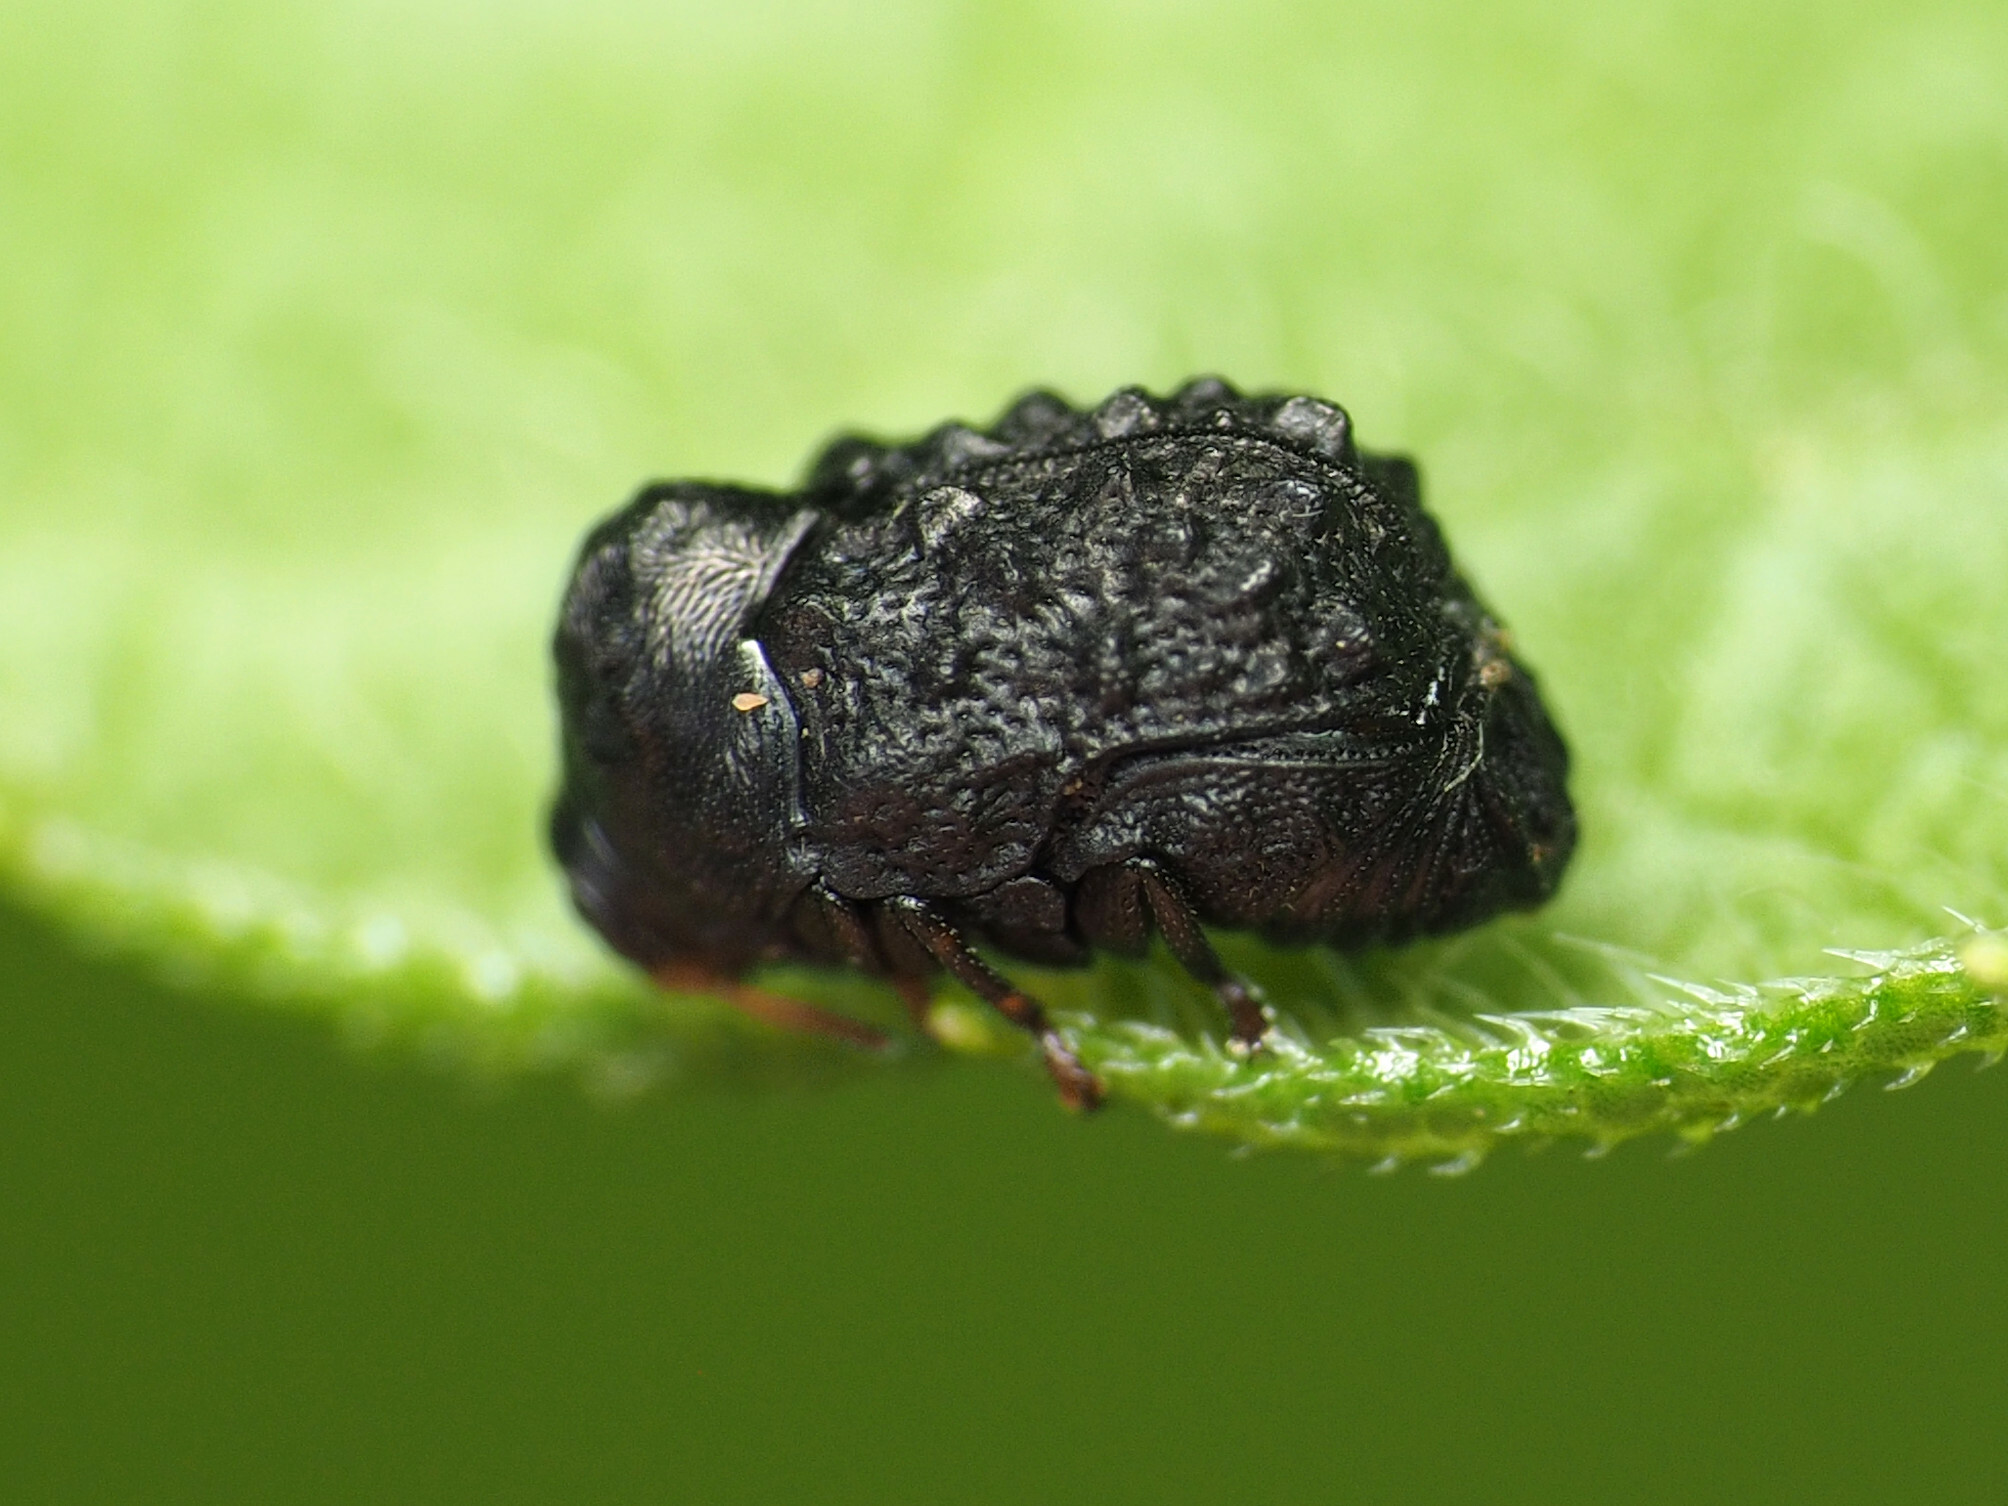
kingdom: Animalia
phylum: Arthropoda
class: Insecta
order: Coleoptera
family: Chrysomelidae
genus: Exema
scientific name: Exema canadensis
